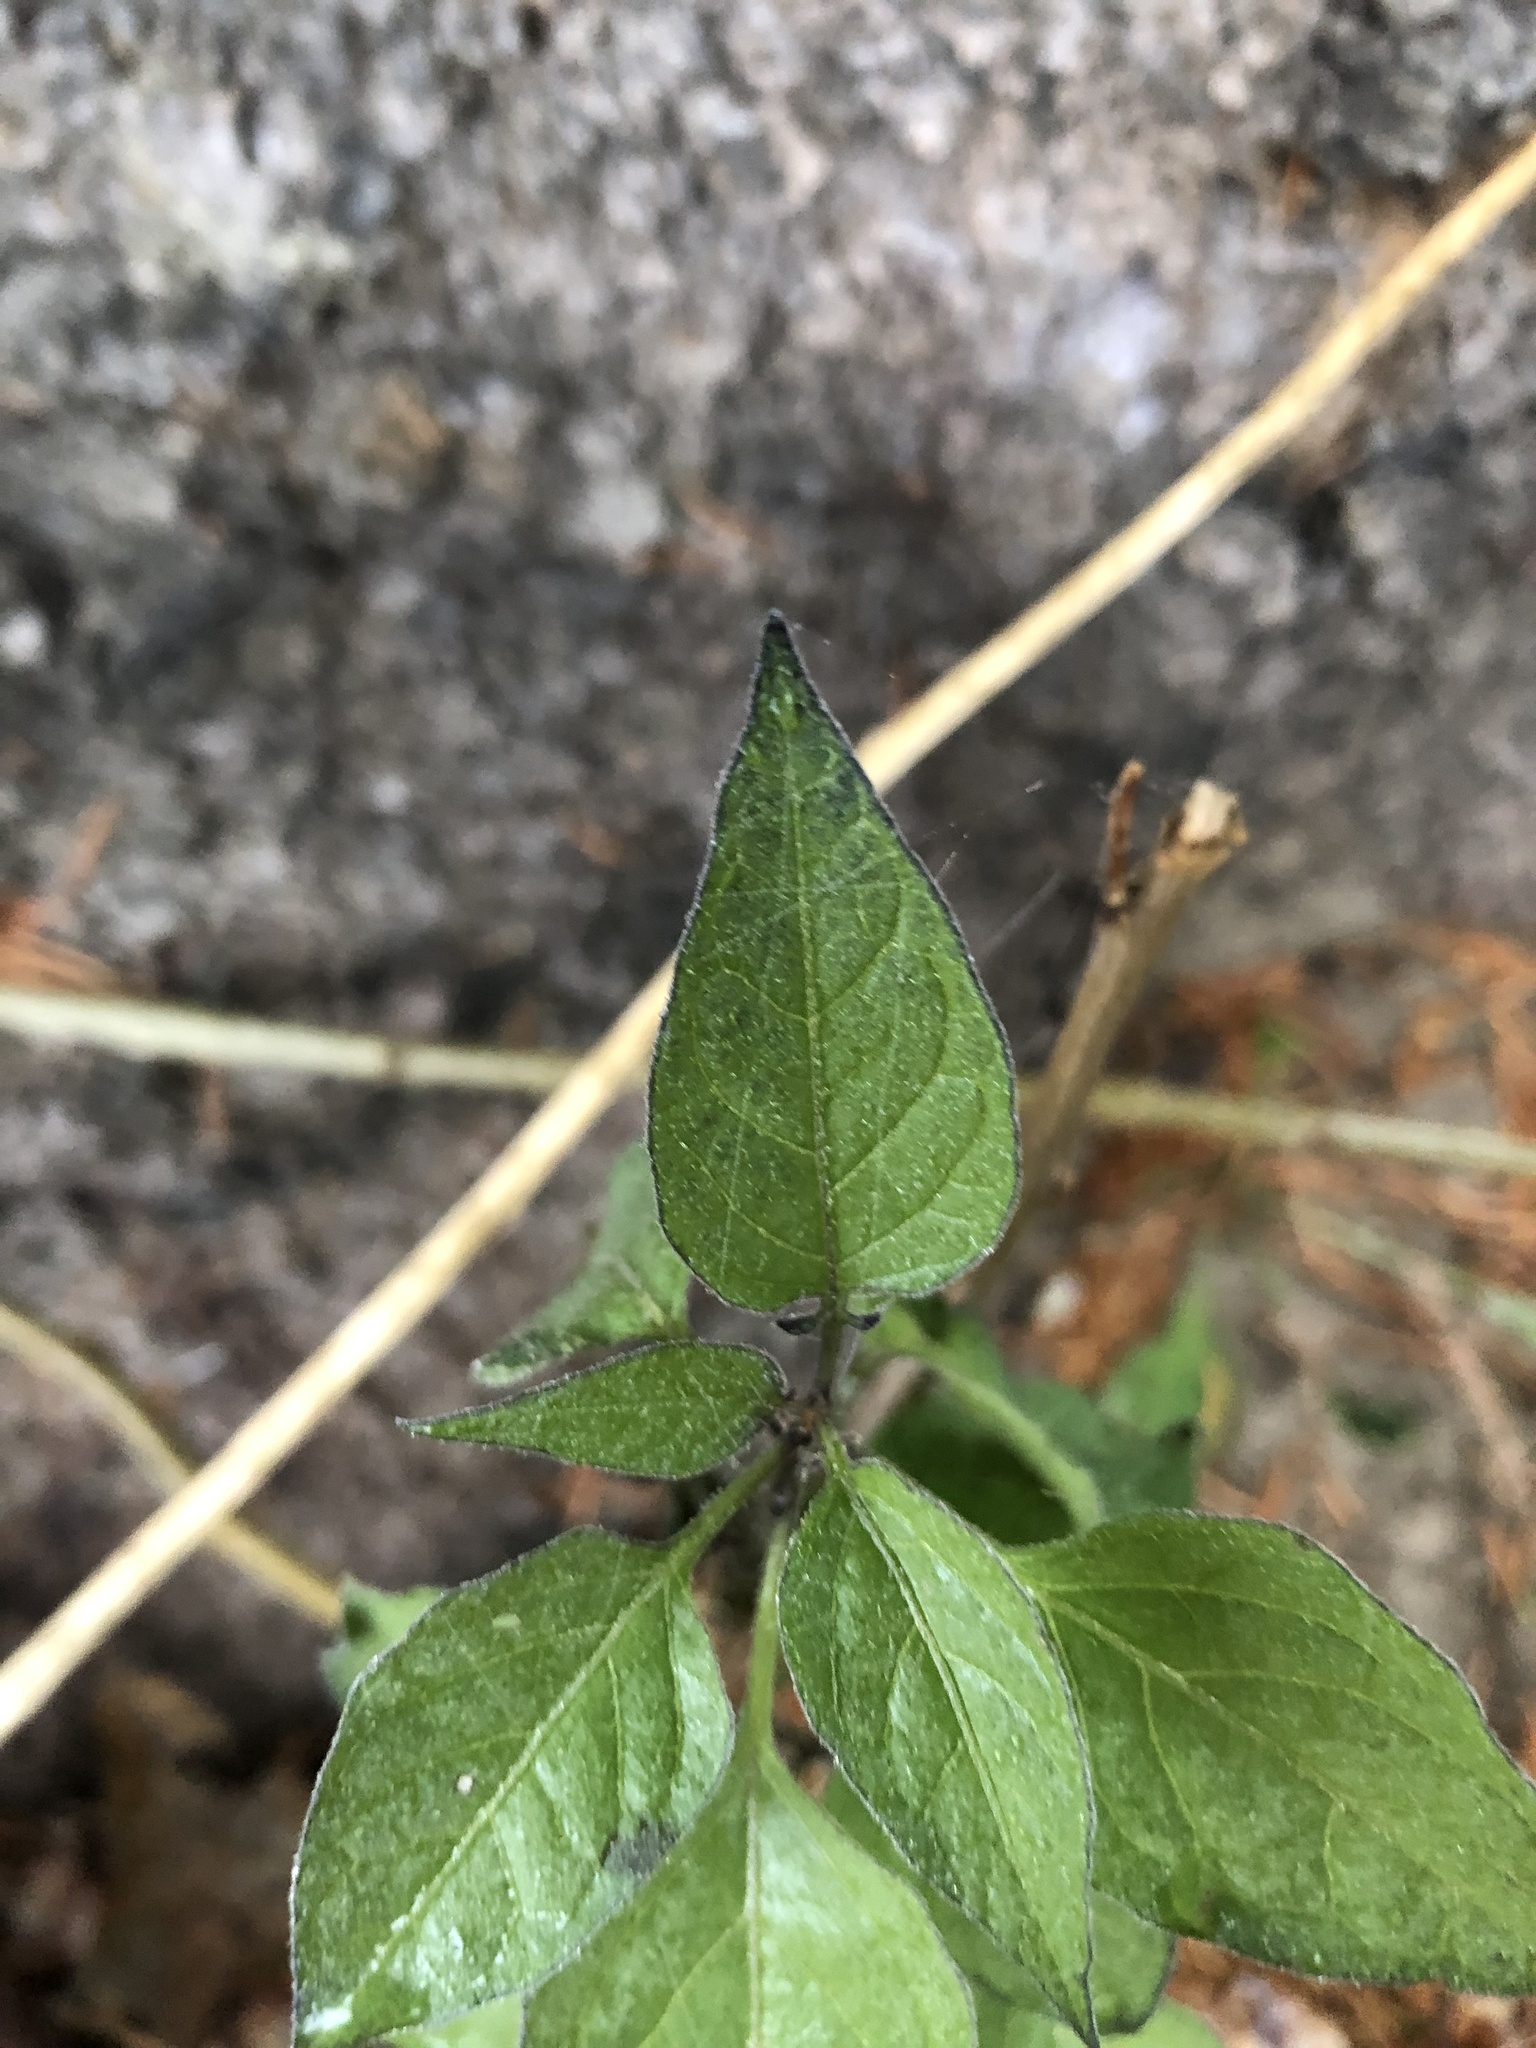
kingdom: Plantae
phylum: Tracheophyta
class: Magnoliopsida
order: Solanales
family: Solanaceae
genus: Solanum
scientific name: Solanum dulcamara
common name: Climbing nightshade
